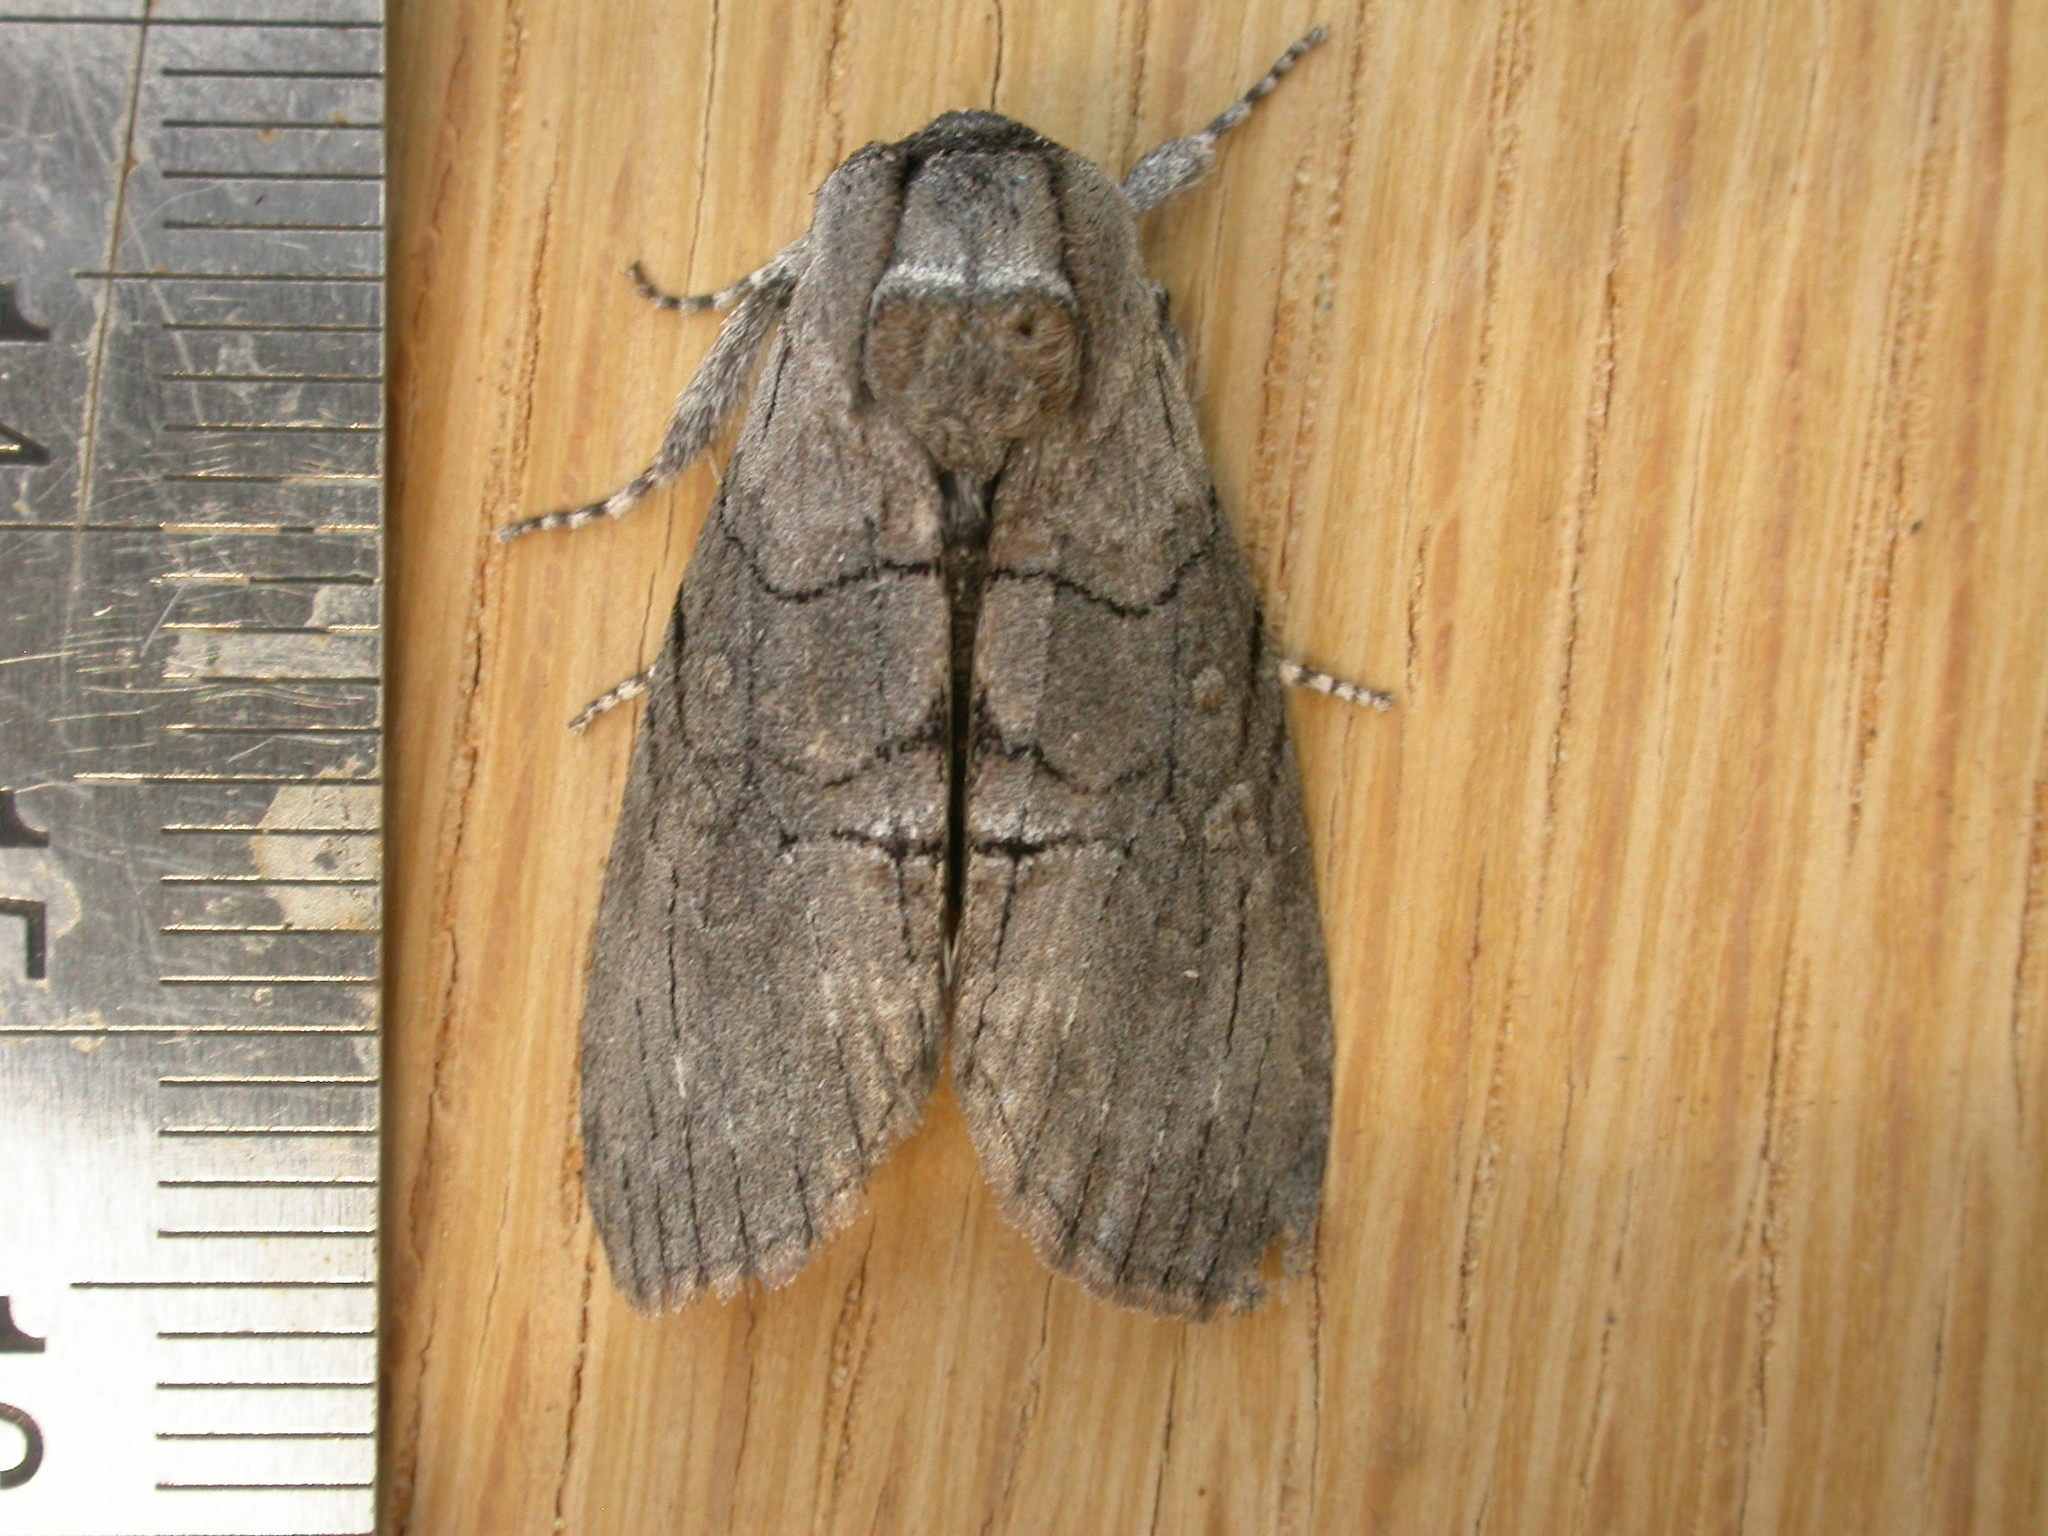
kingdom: Animalia
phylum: Arthropoda
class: Insecta
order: Lepidoptera
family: Oenosandridae
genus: Discophlebia
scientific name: Discophlebia catocalina
